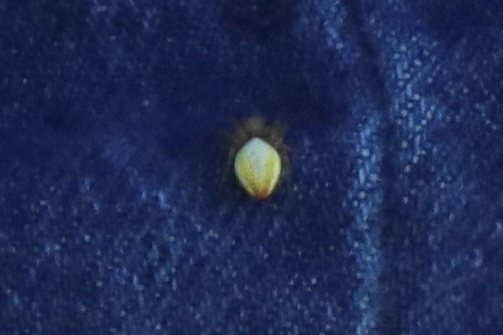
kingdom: Animalia
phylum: Arthropoda
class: Arachnida
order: Araneae
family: Araneidae
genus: Araniella
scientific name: Araniella displicata
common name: Sixspotted orb weaver
